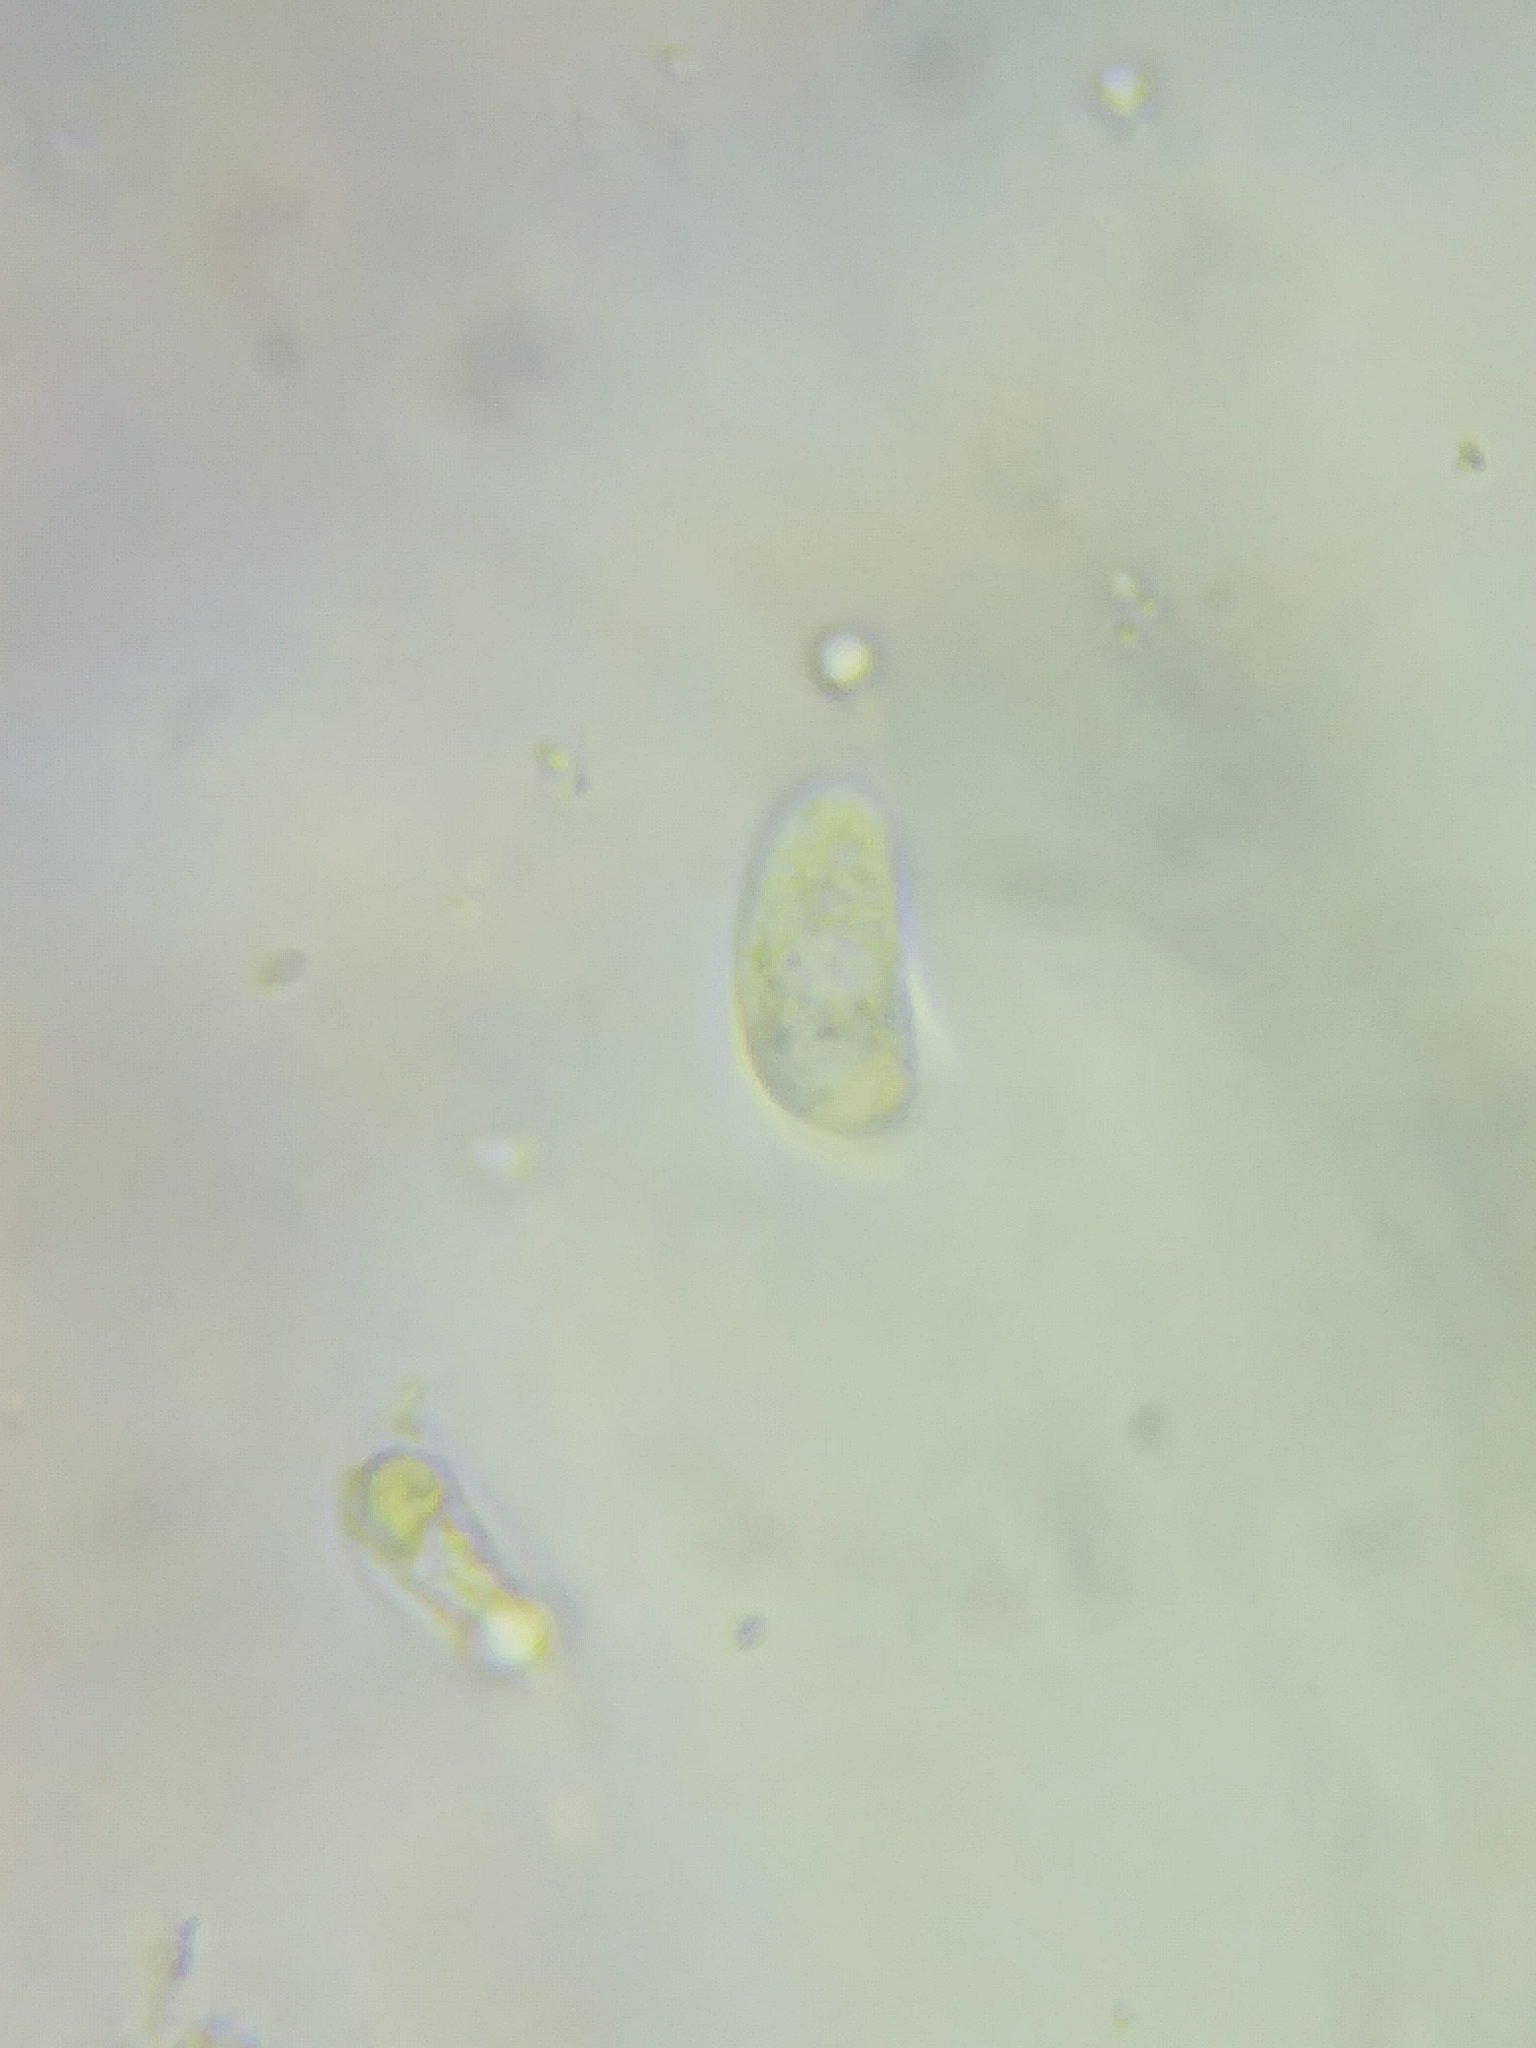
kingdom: Fungi
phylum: Basidiomycota
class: Dacrymycetes
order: Dacrymycetales
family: Dacrymycetaceae
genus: Guepiniopsis
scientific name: Guepiniopsis buccina
